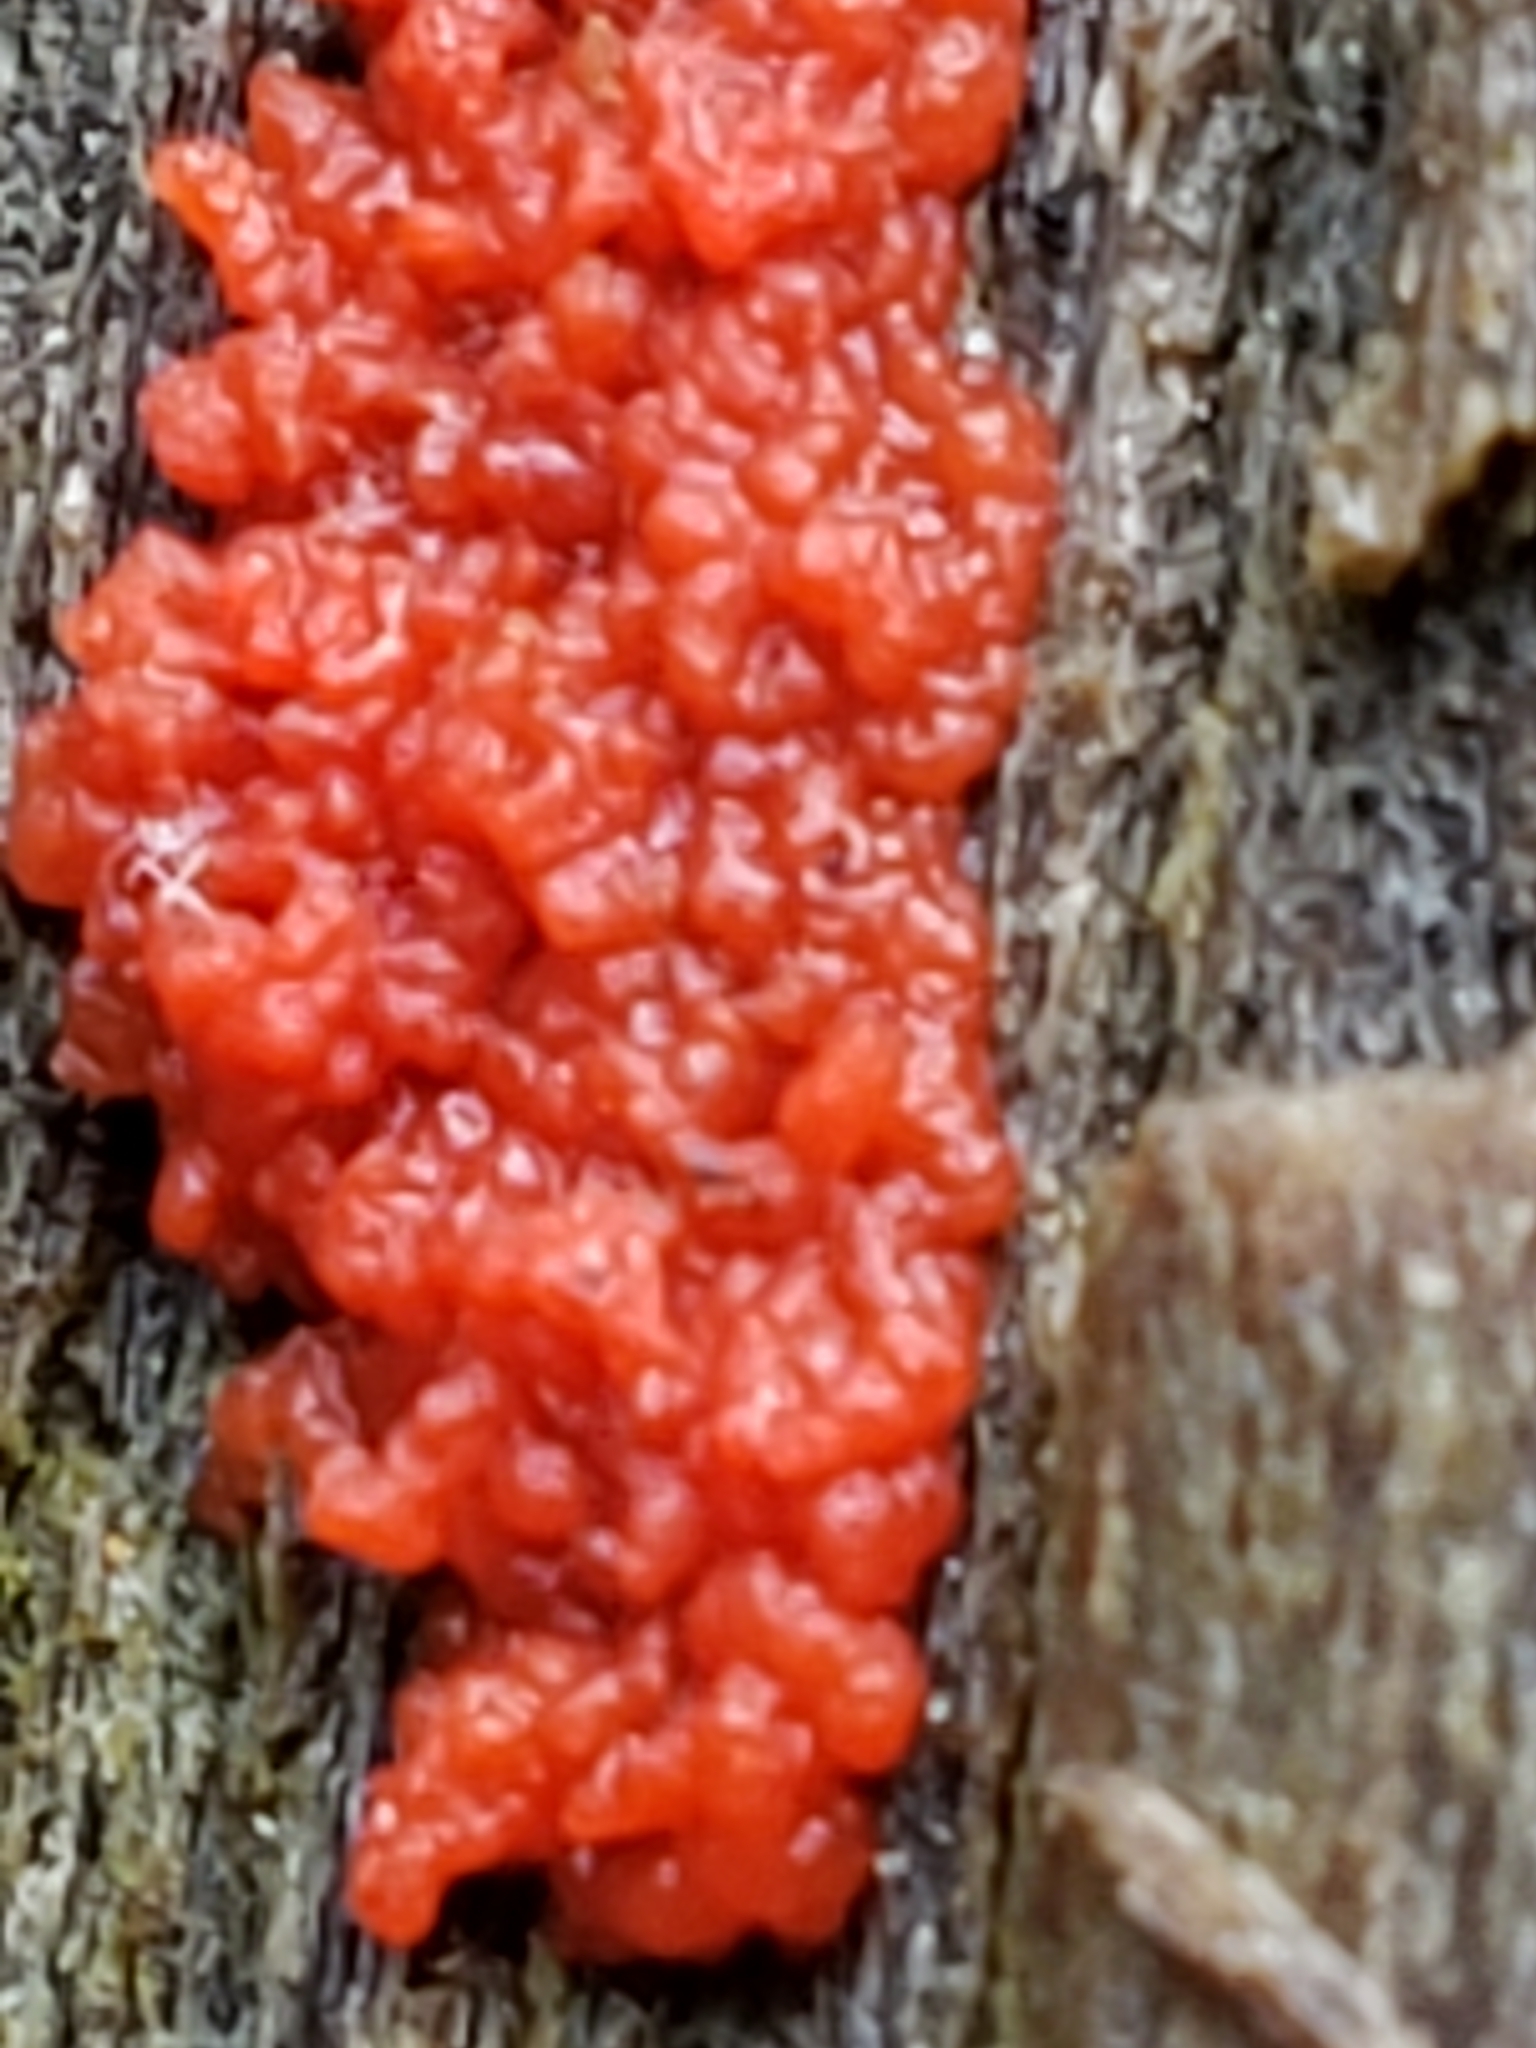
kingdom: Fungi
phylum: Basidiomycota
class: Agaricomycetes
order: Cantharellales
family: Tulasnellaceae
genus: Tulasnella
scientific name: Tulasnella aurantiaca
